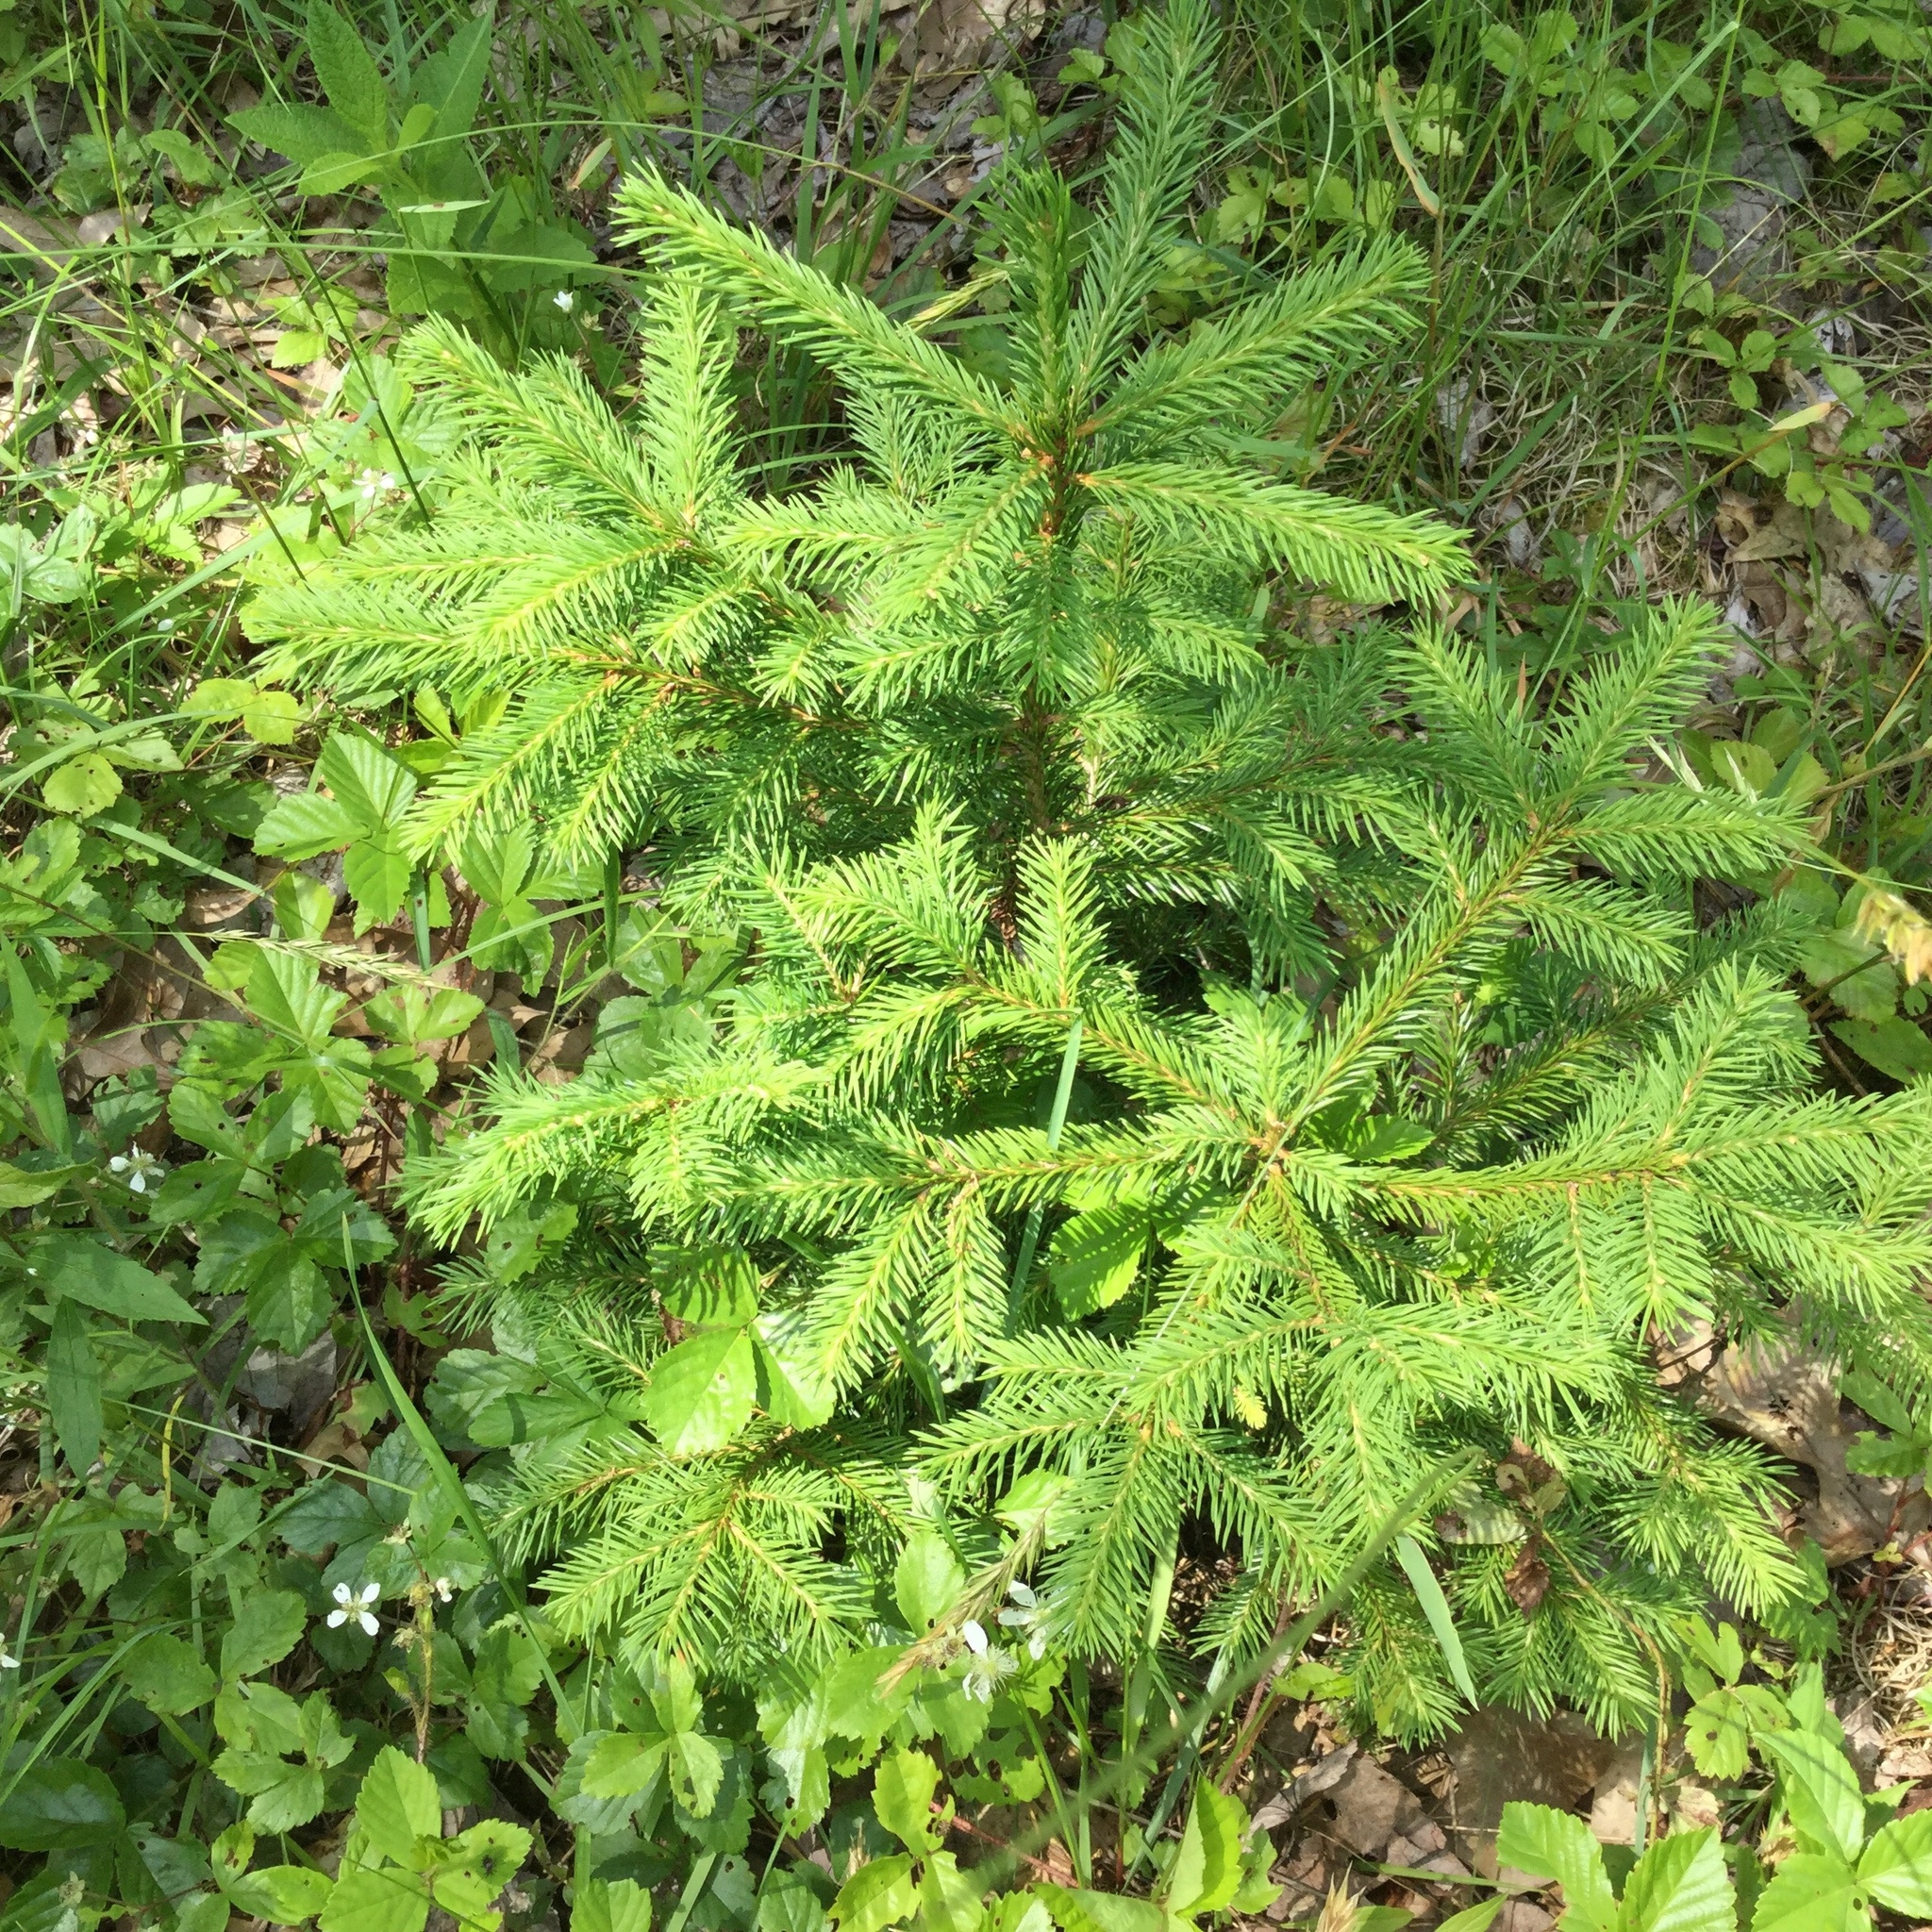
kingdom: Plantae
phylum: Tracheophyta
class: Pinopsida
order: Pinales
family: Pinaceae
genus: Picea
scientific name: Picea abies
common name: Norway spruce
